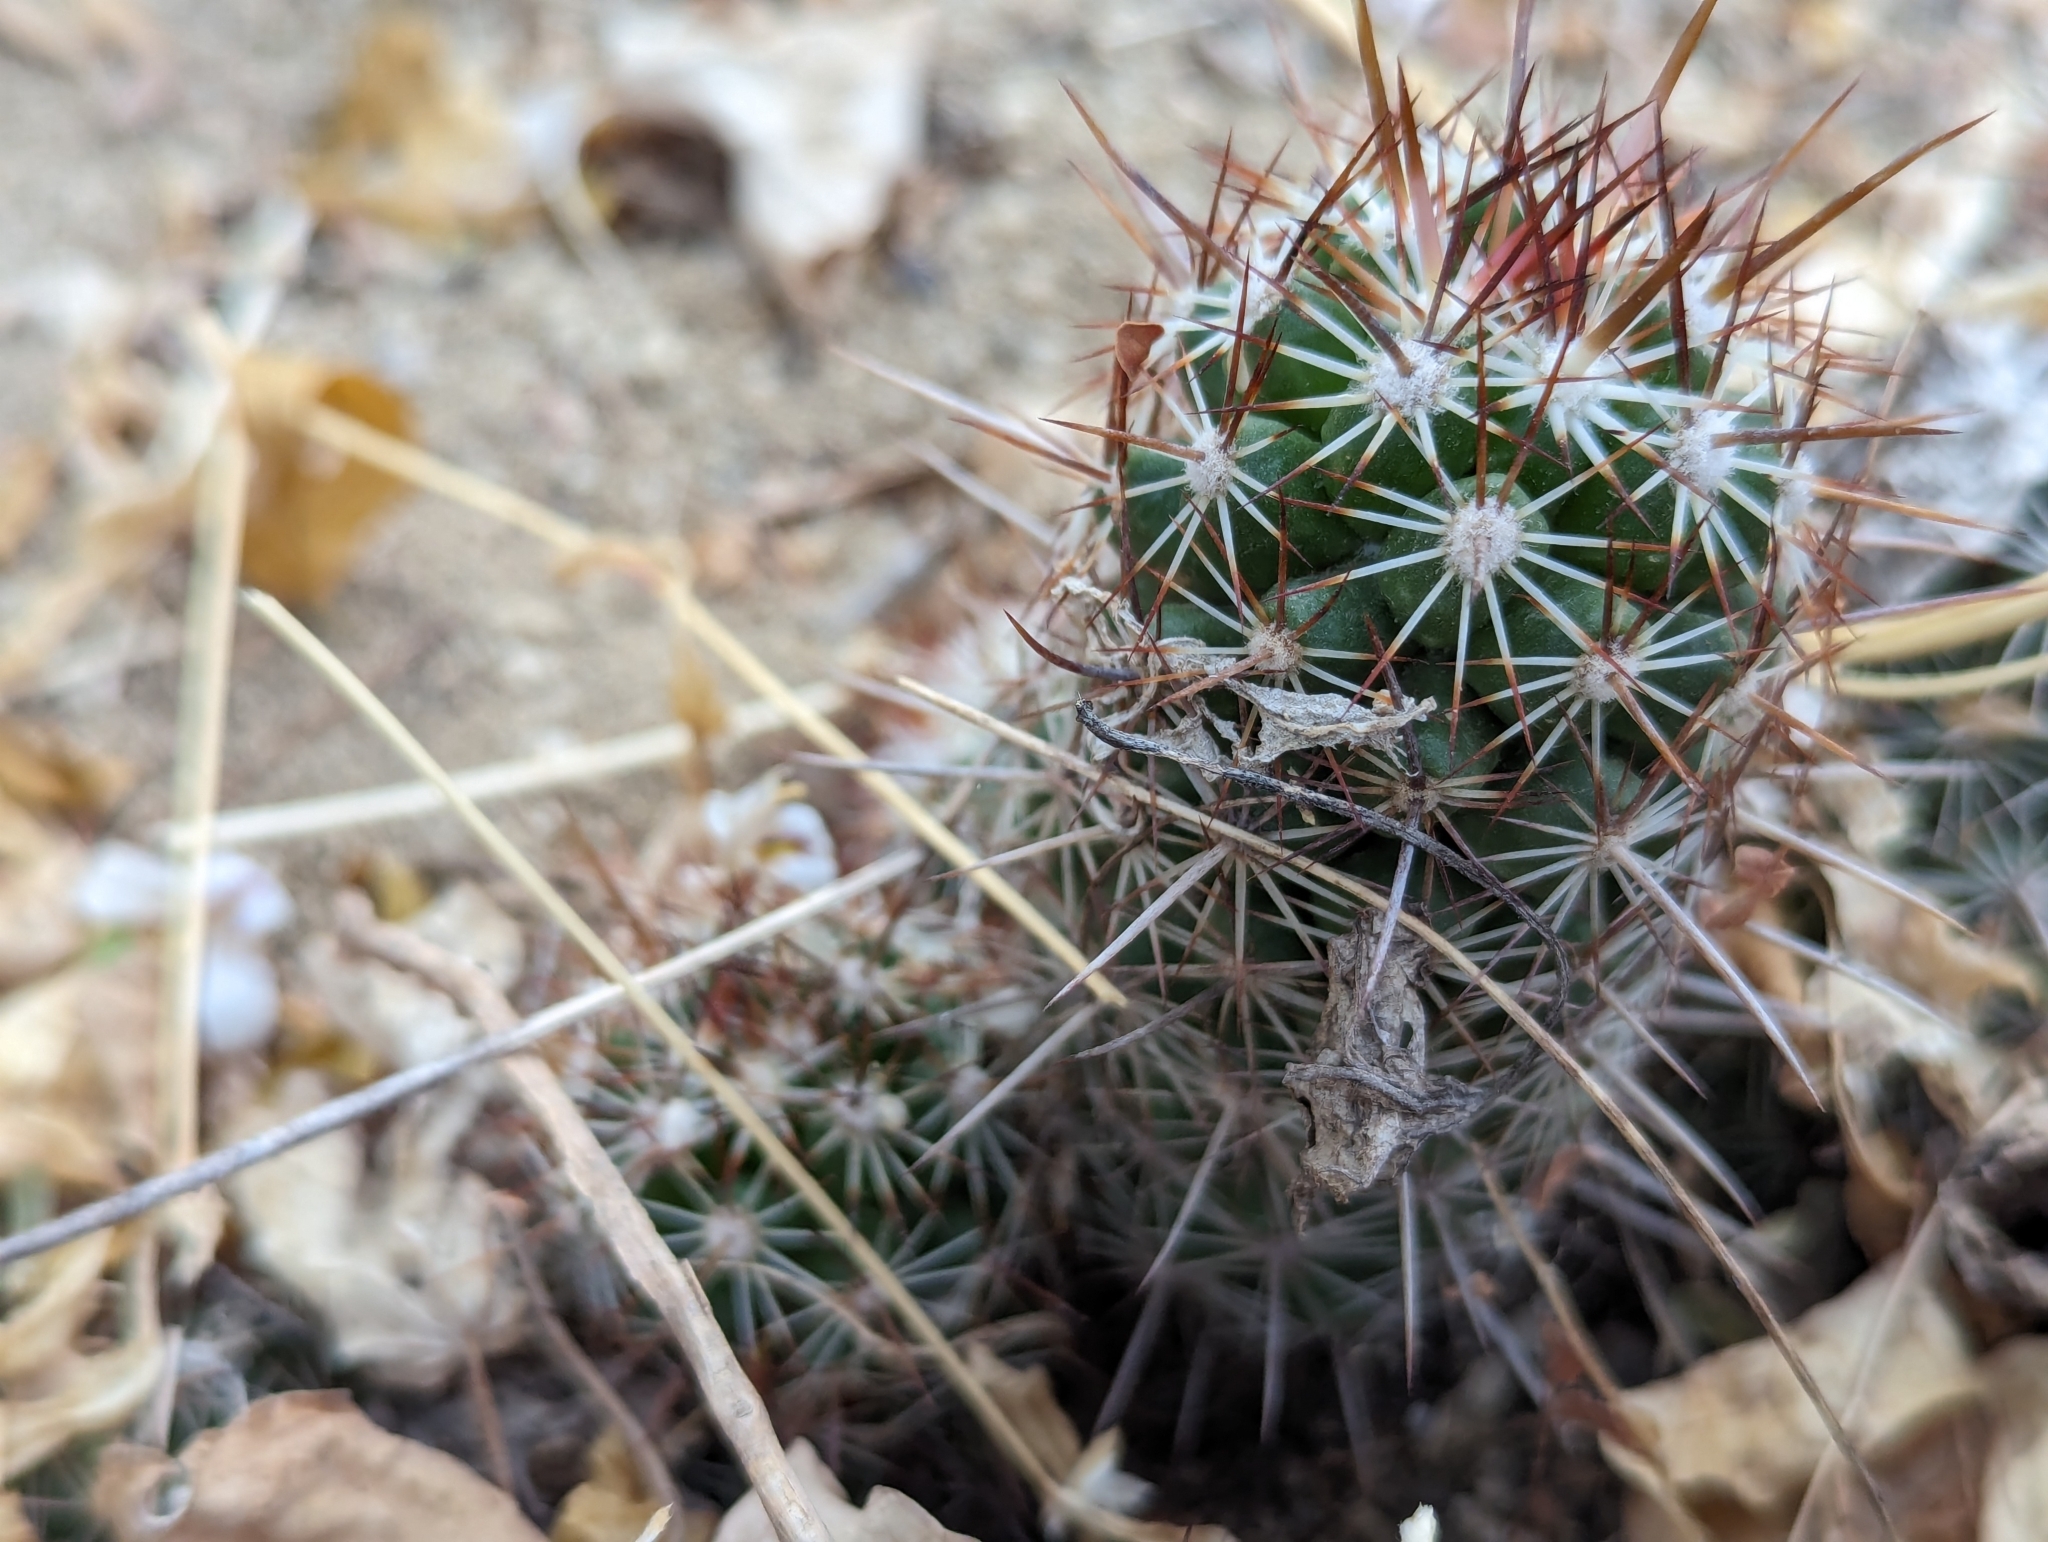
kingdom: Plantae
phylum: Tracheophyta
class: Magnoliopsida
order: Caryophyllales
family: Cactaceae
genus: Cochemiea
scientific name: Cochemiea capensis
